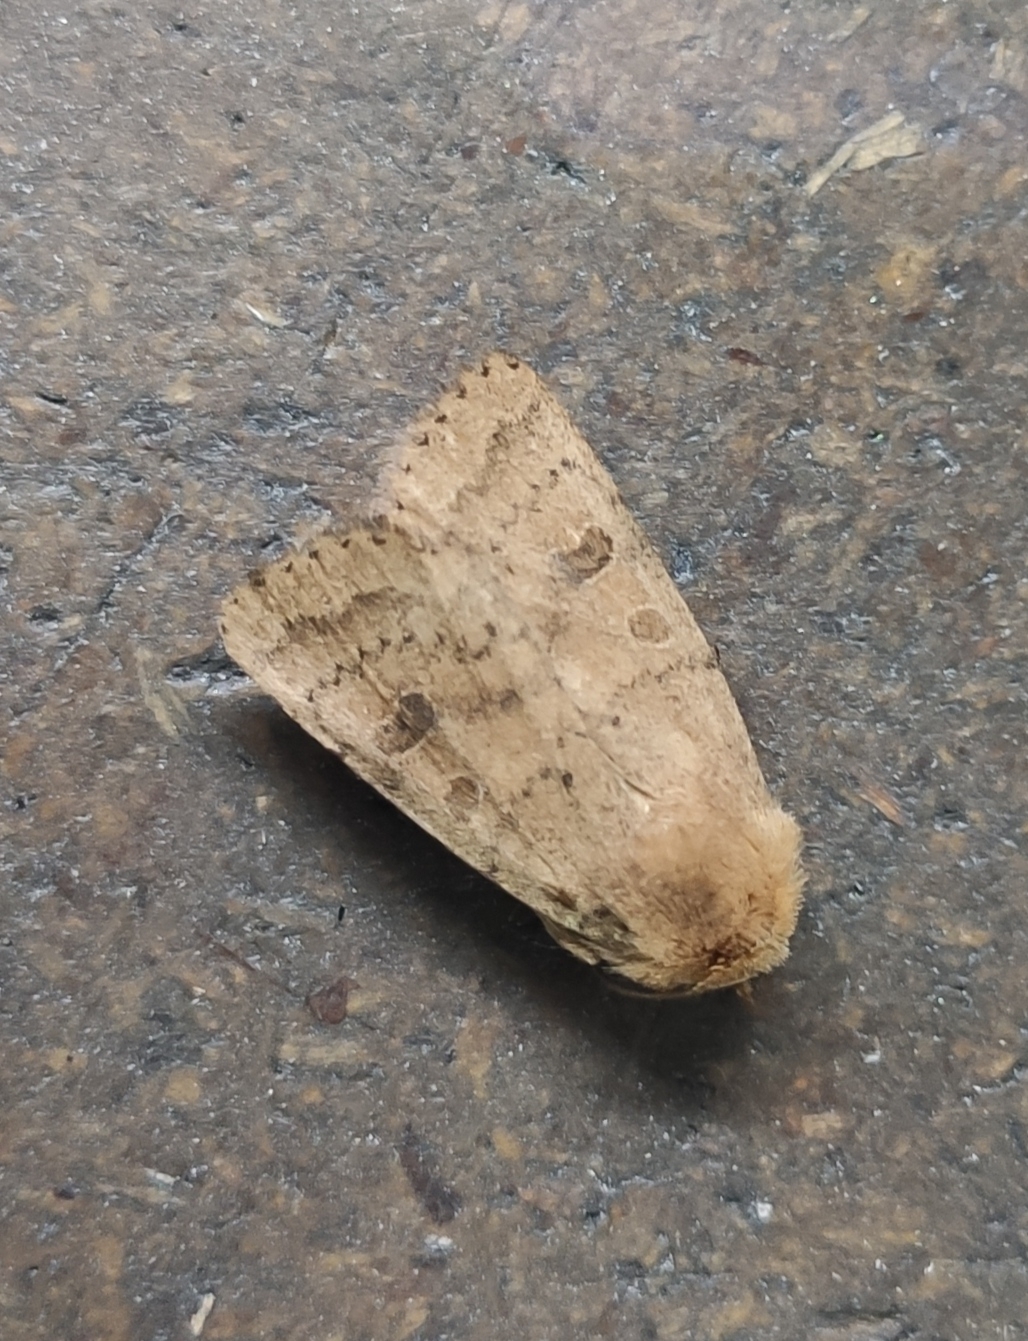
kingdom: Animalia
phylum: Arthropoda
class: Insecta
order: Lepidoptera
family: Noctuidae
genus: Hoplodrina
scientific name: Hoplodrina octogenaria
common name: Uncertain
